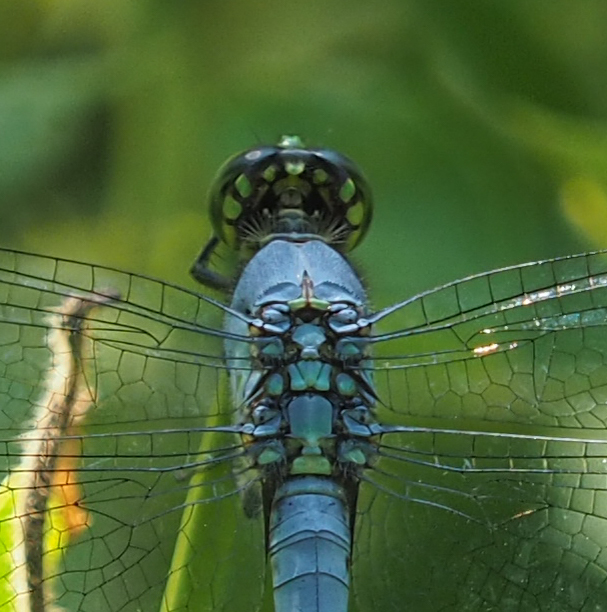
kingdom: Animalia
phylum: Arthropoda
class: Insecta
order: Odonata
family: Libellulidae
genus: Erythemis
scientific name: Erythemis simplicicollis
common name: Eastern pondhawk
